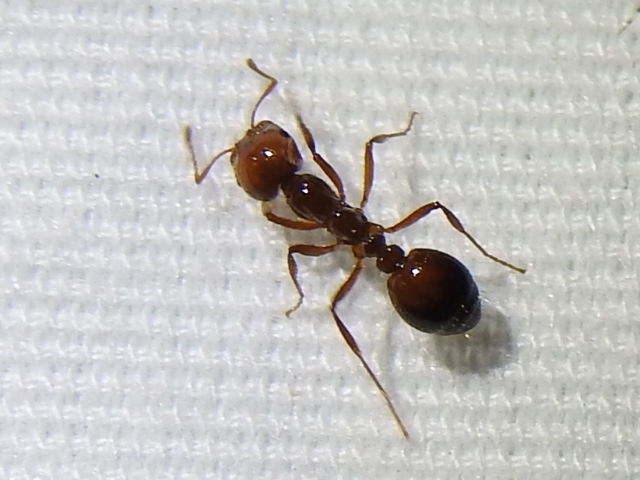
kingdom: Animalia
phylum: Arthropoda
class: Insecta
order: Hymenoptera
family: Formicidae
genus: Solenopsis
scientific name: Solenopsis invicta
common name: Red imported fire ant
